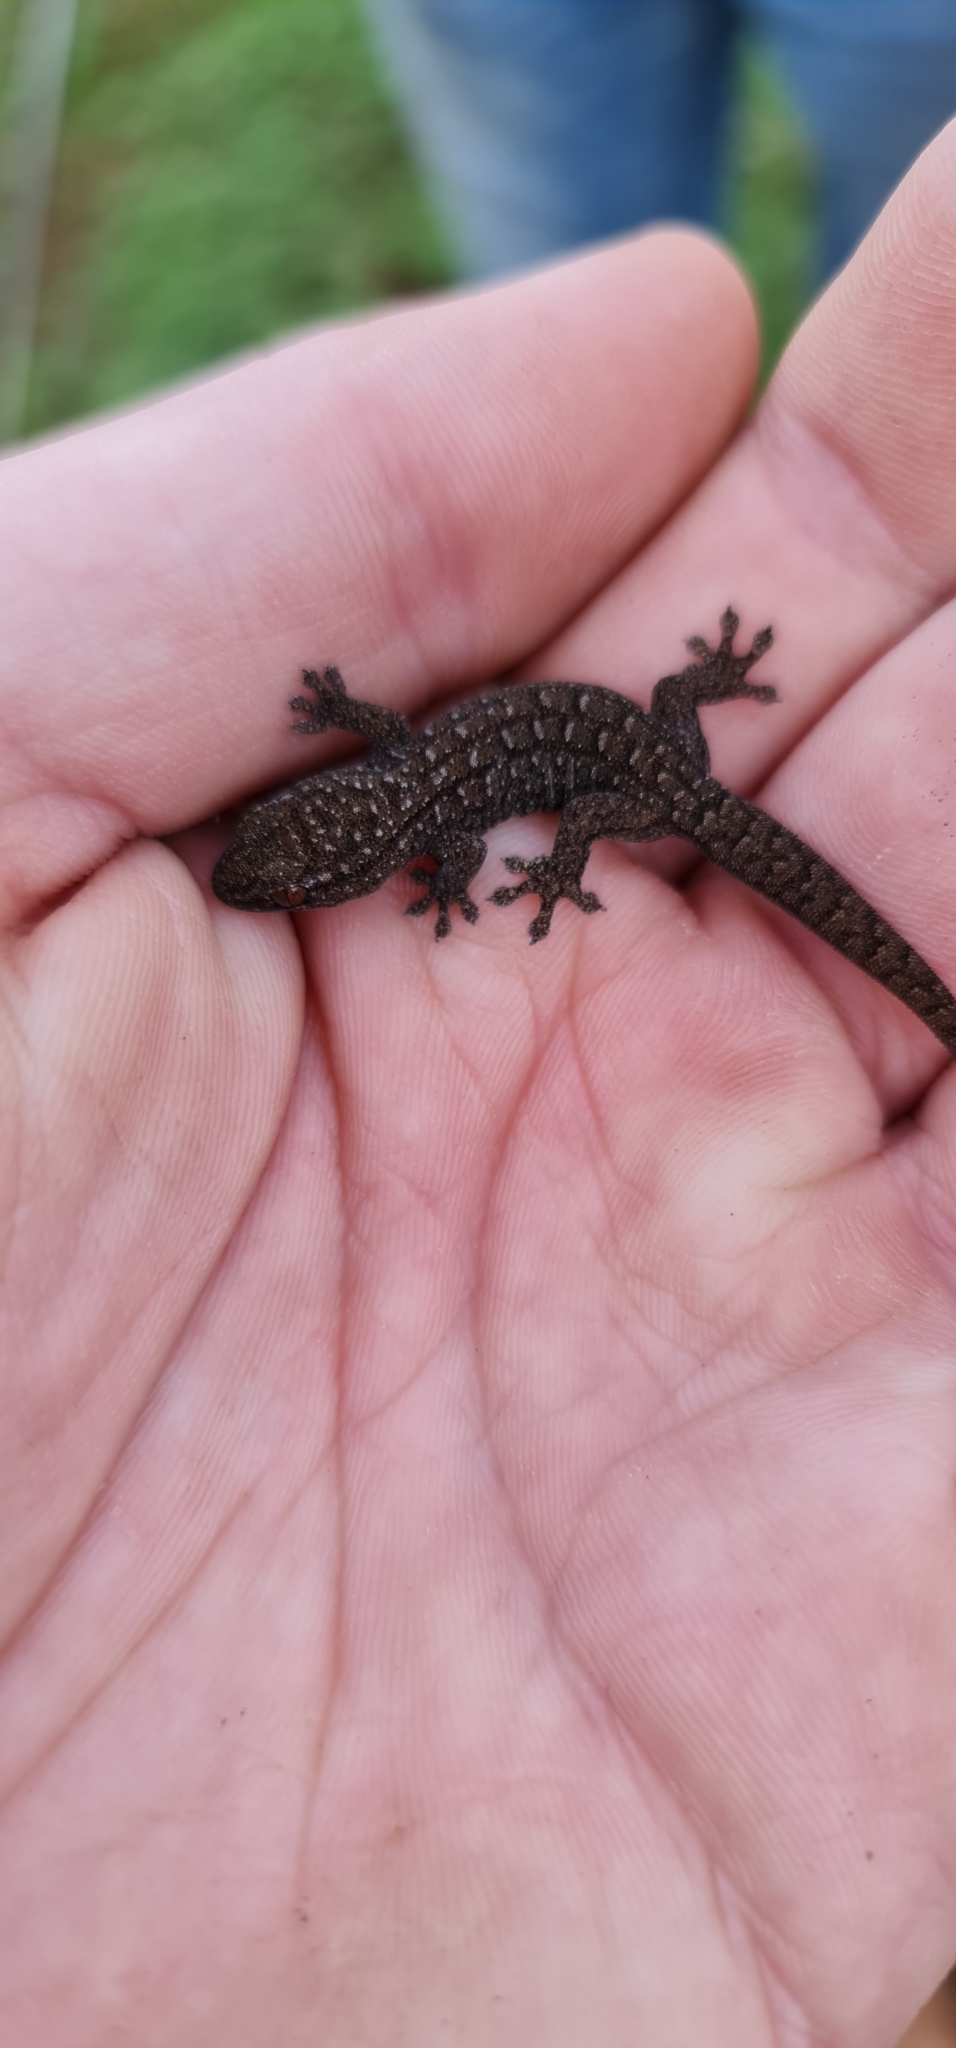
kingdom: Animalia
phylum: Chordata
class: Squamata
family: Gekkonidae
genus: Gehyra
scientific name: Gehyra versicolor
